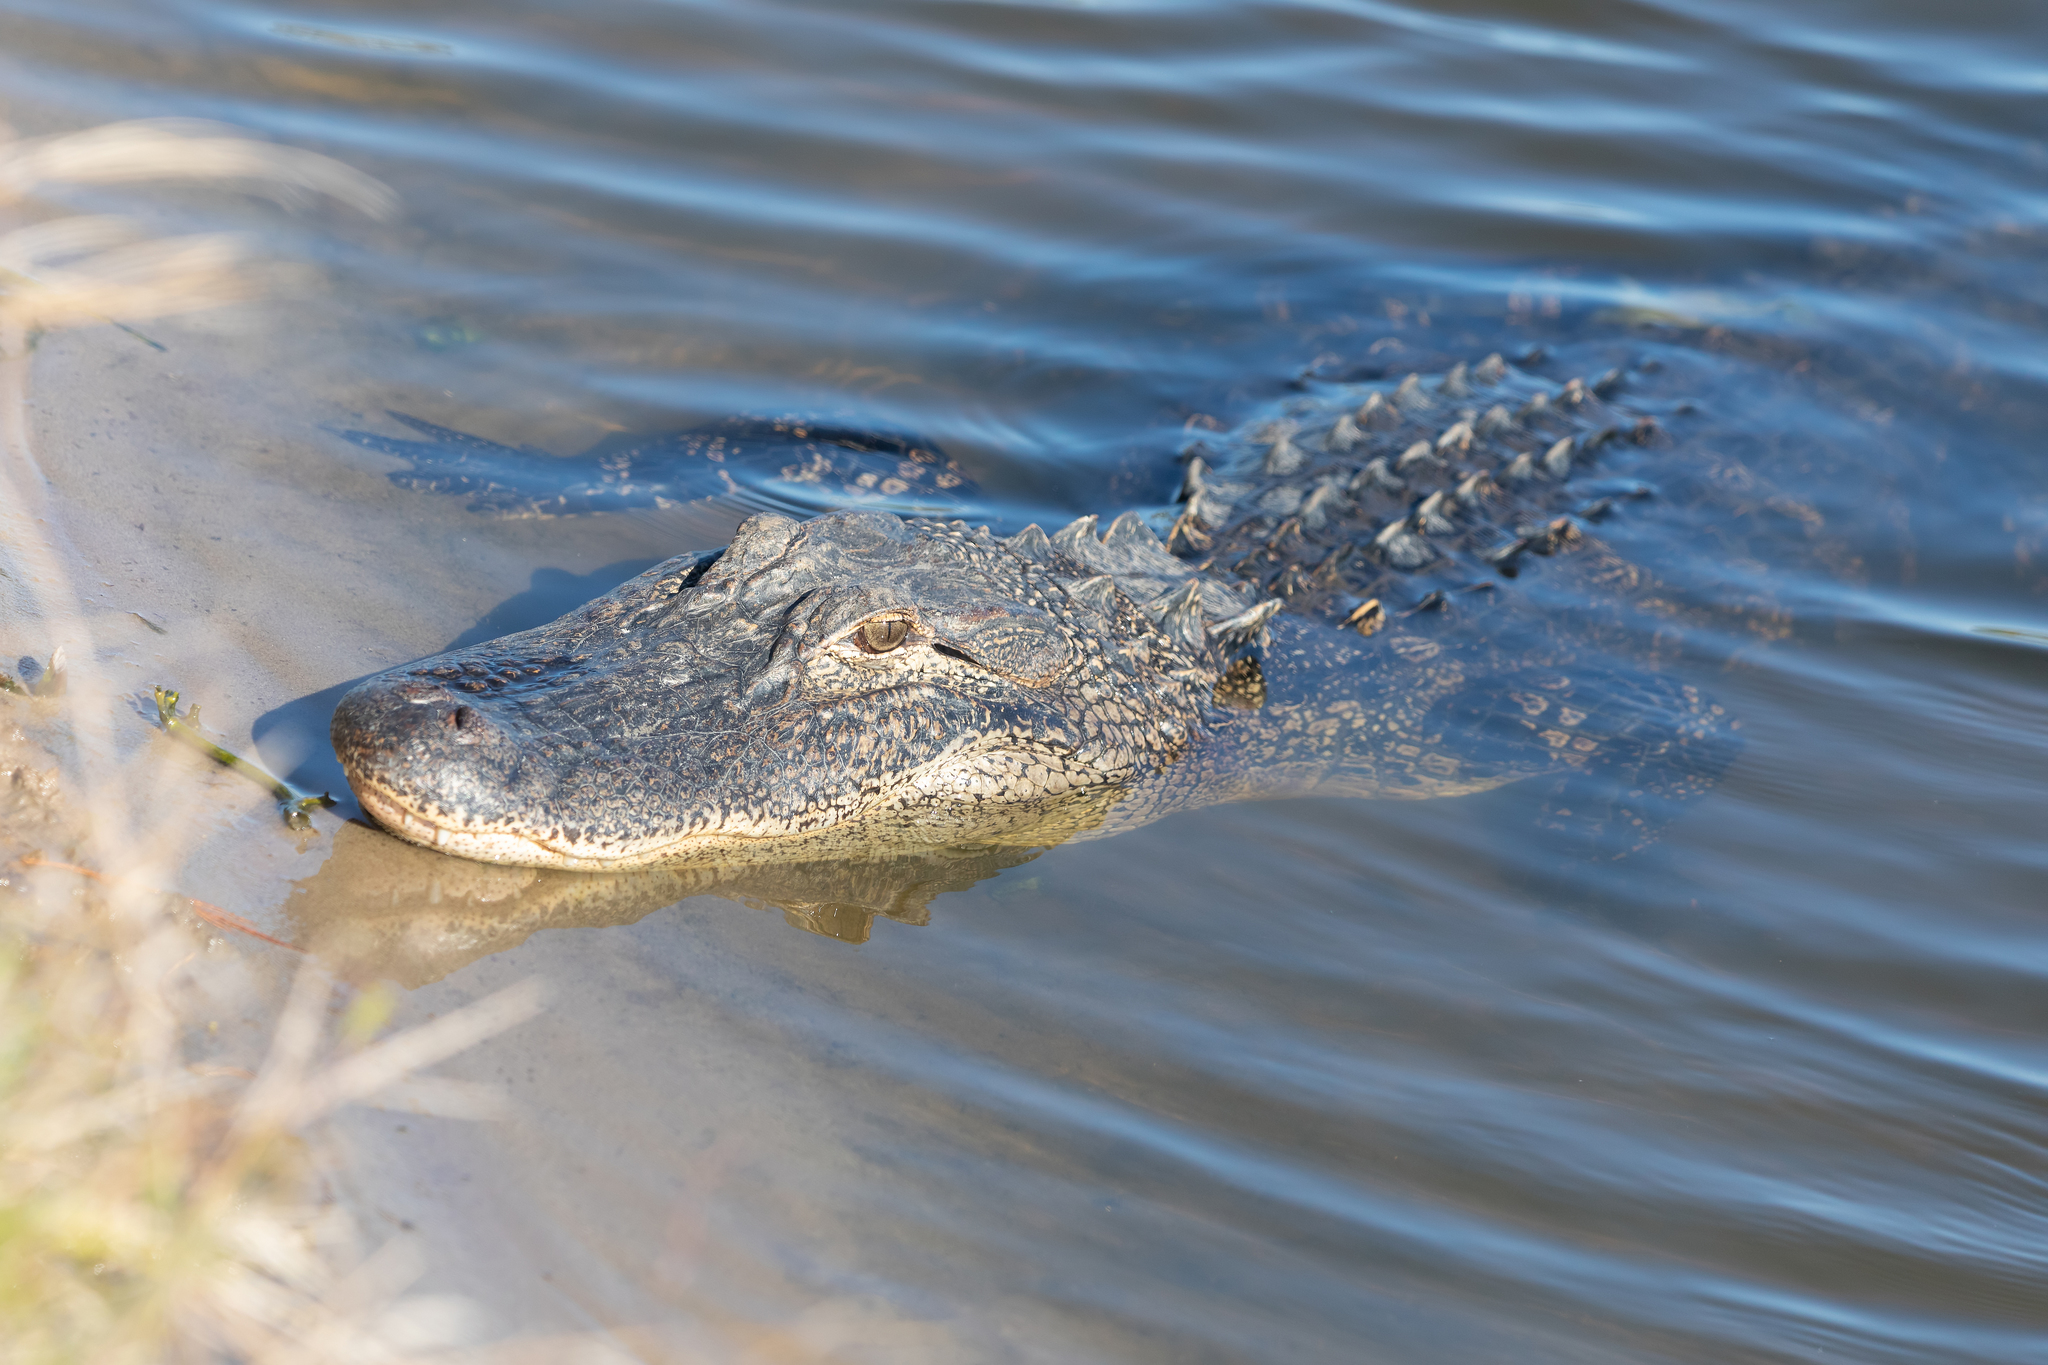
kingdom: Animalia
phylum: Chordata
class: Crocodylia
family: Alligatoridae
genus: Alligator
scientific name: Alligator mississippiensis
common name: American alligator
